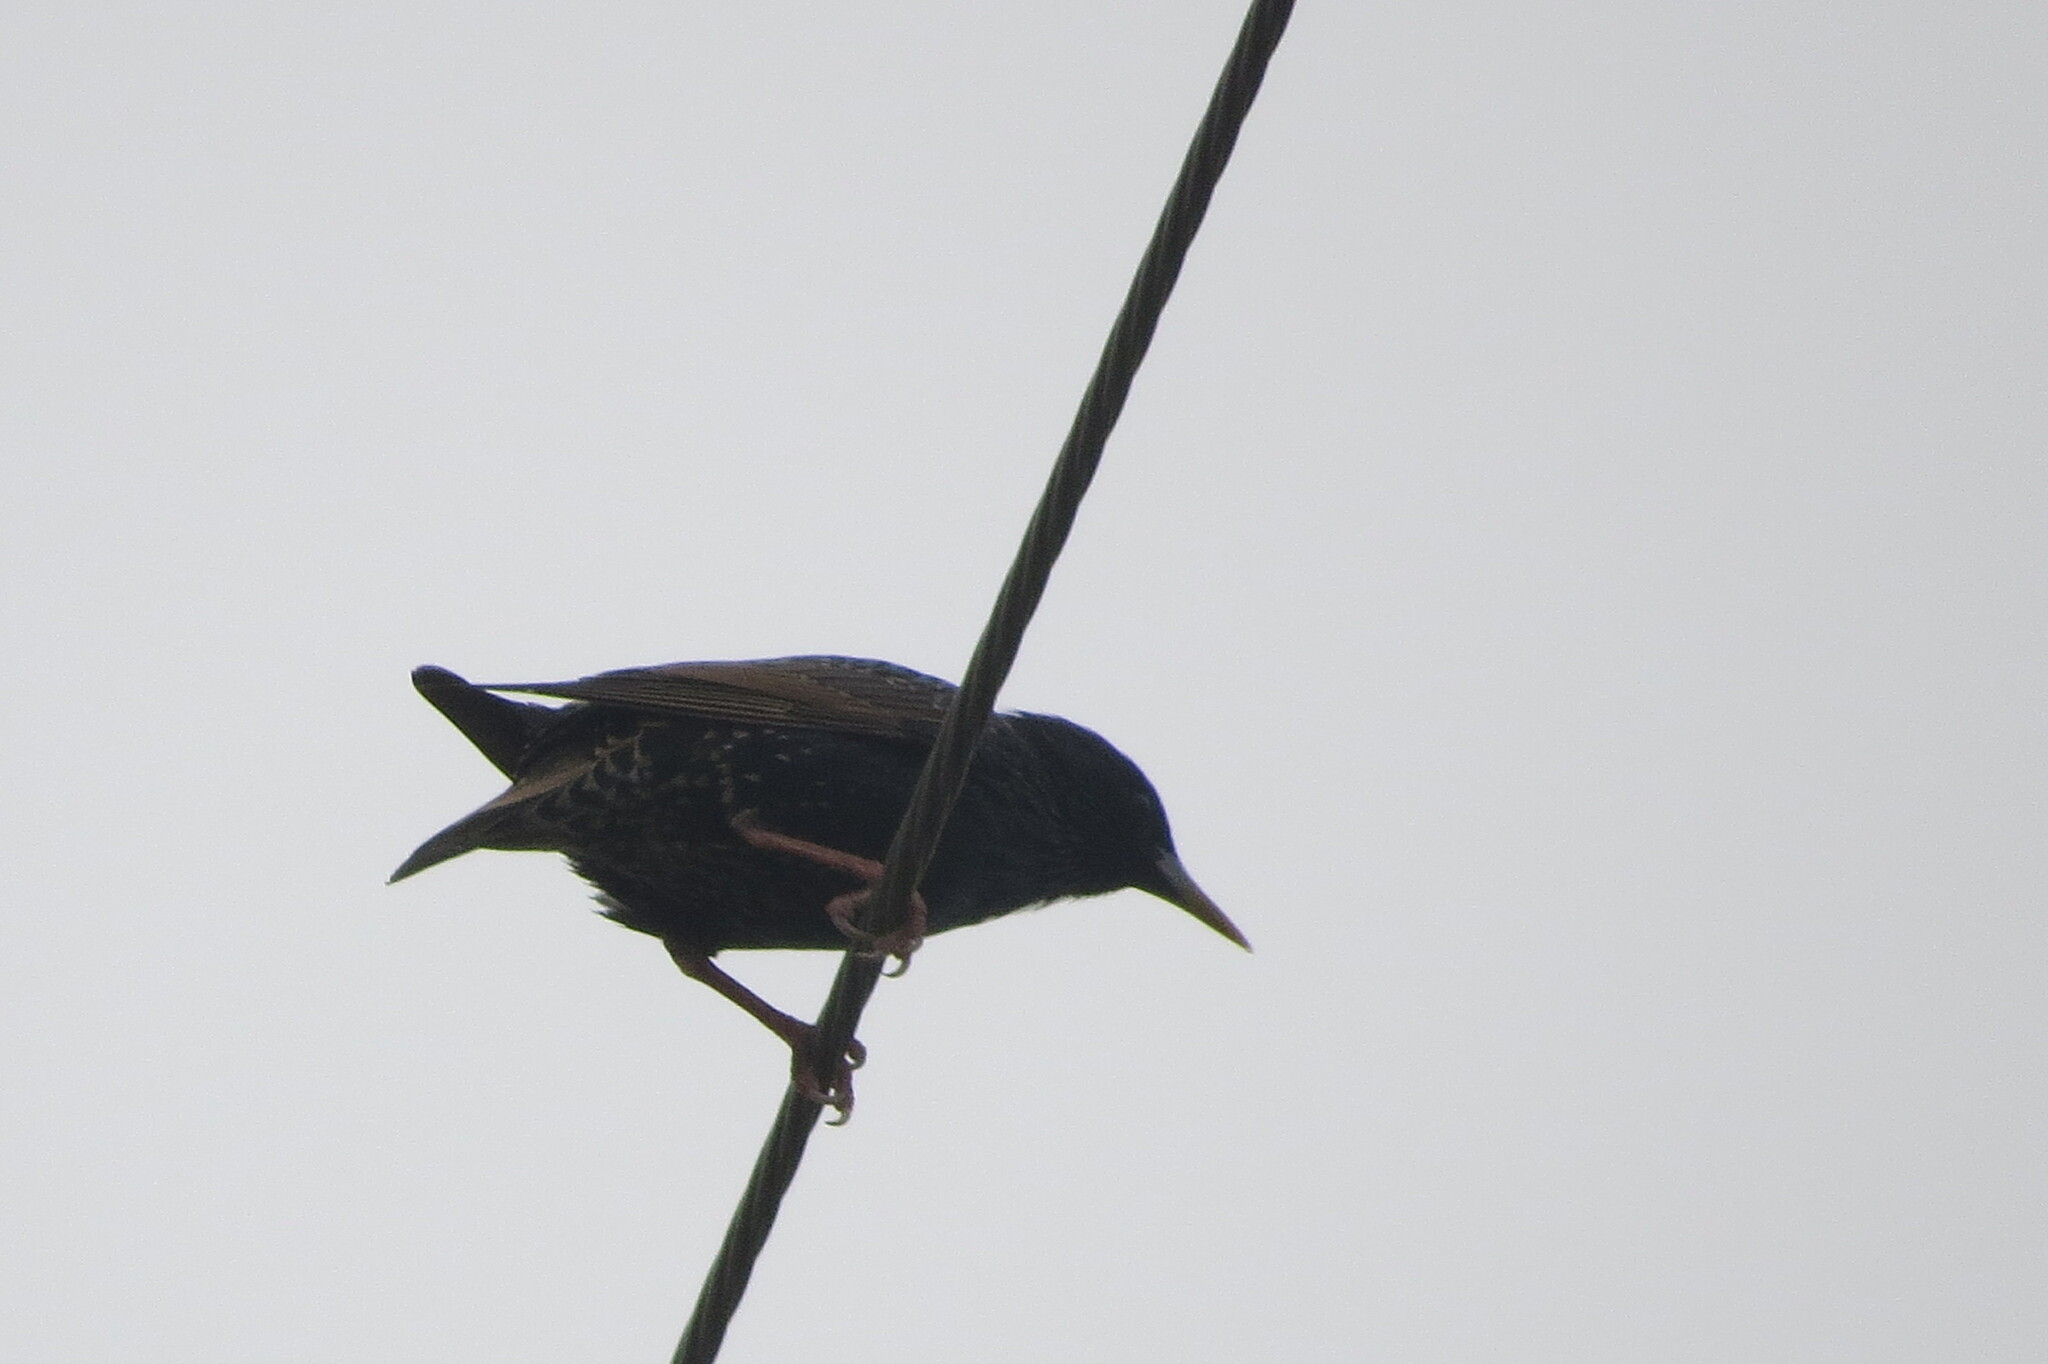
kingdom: Animalia
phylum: Chordata
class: Aves
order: Passeriformes
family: Sturnidae
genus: Sturnus
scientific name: Sturnus vulgaris
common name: Common starling
